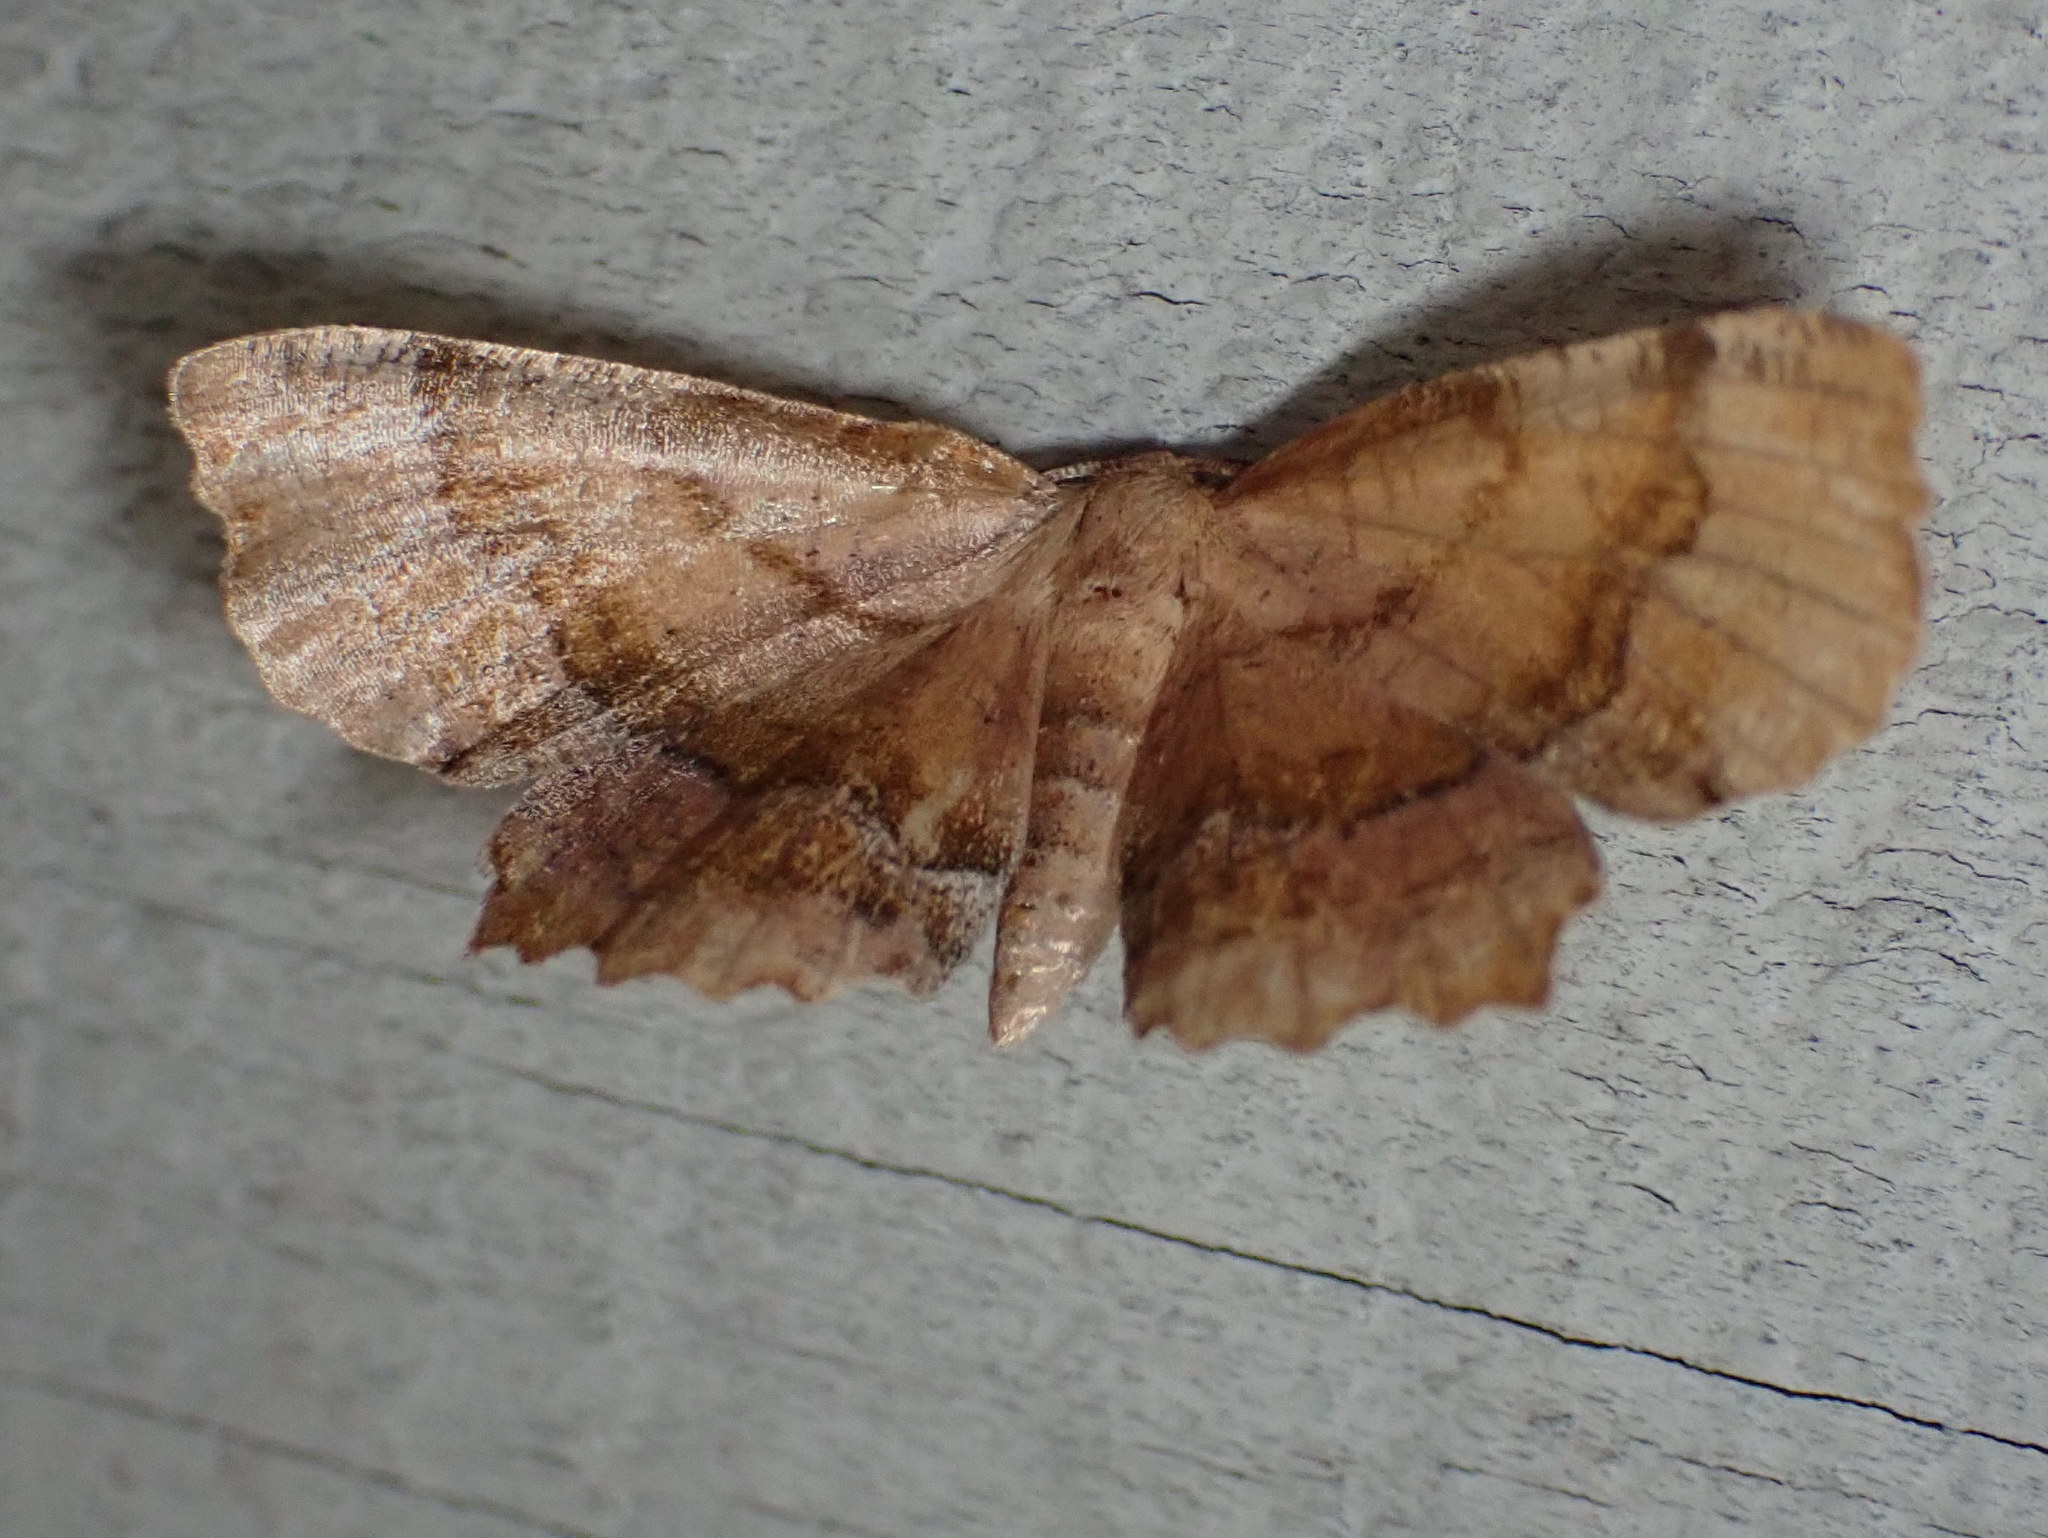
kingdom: Animalia
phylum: Arthropoda
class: Insecta
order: Lepidoptera
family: Geometridae
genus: Cepphis
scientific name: Cepphis armataria
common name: Scallop moth
